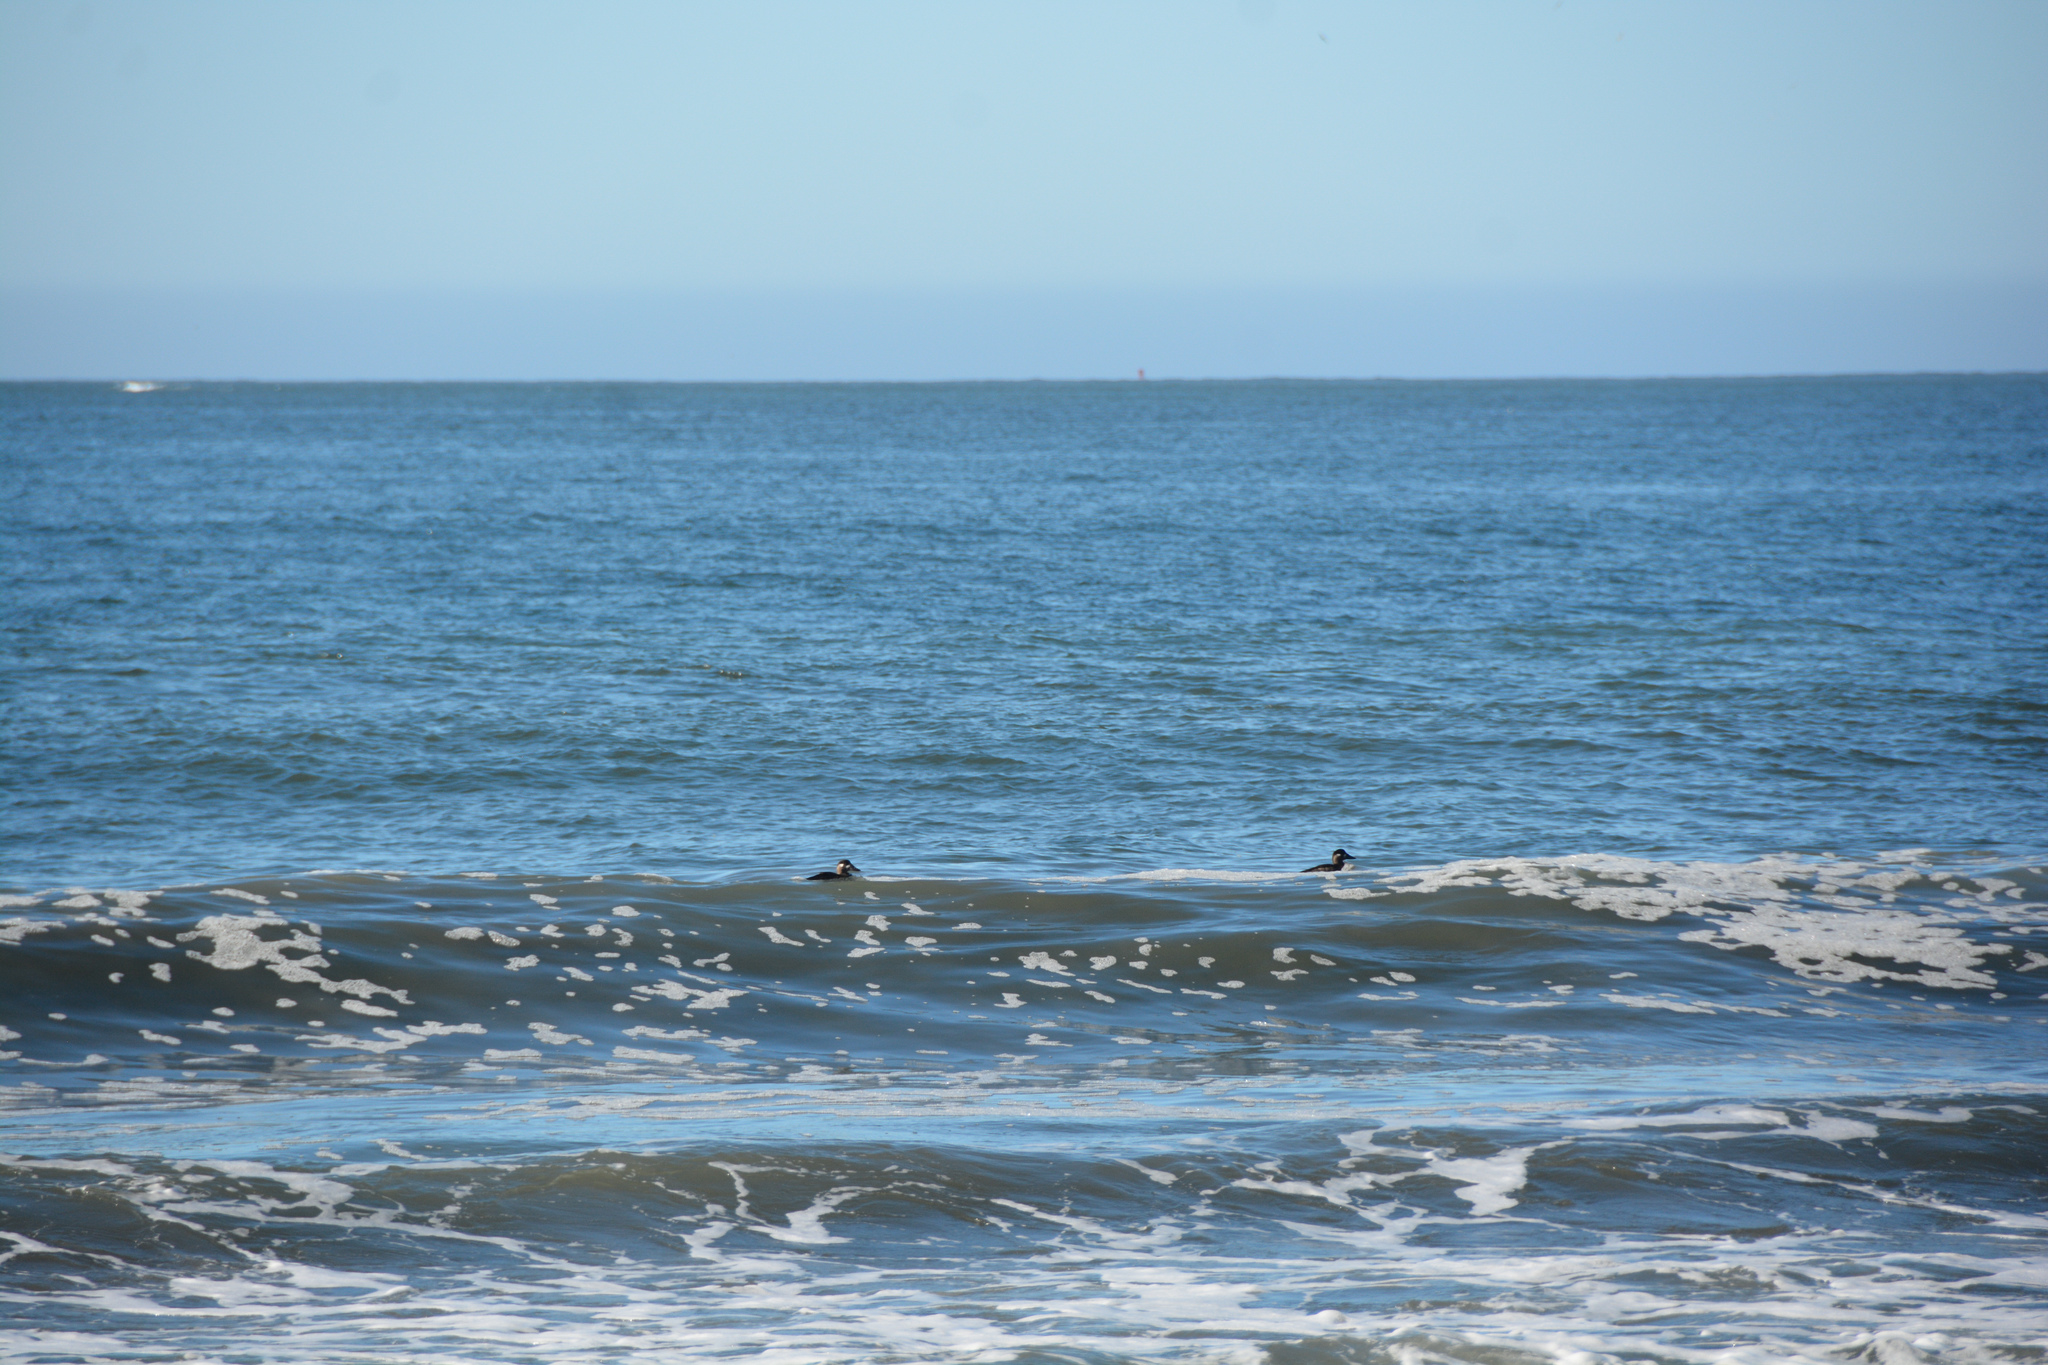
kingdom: Animalia
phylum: Chordata
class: Aves
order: Anseriformes
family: Anatidae
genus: Melanitta
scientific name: Melanitta perspicillata
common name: Surf scoter
